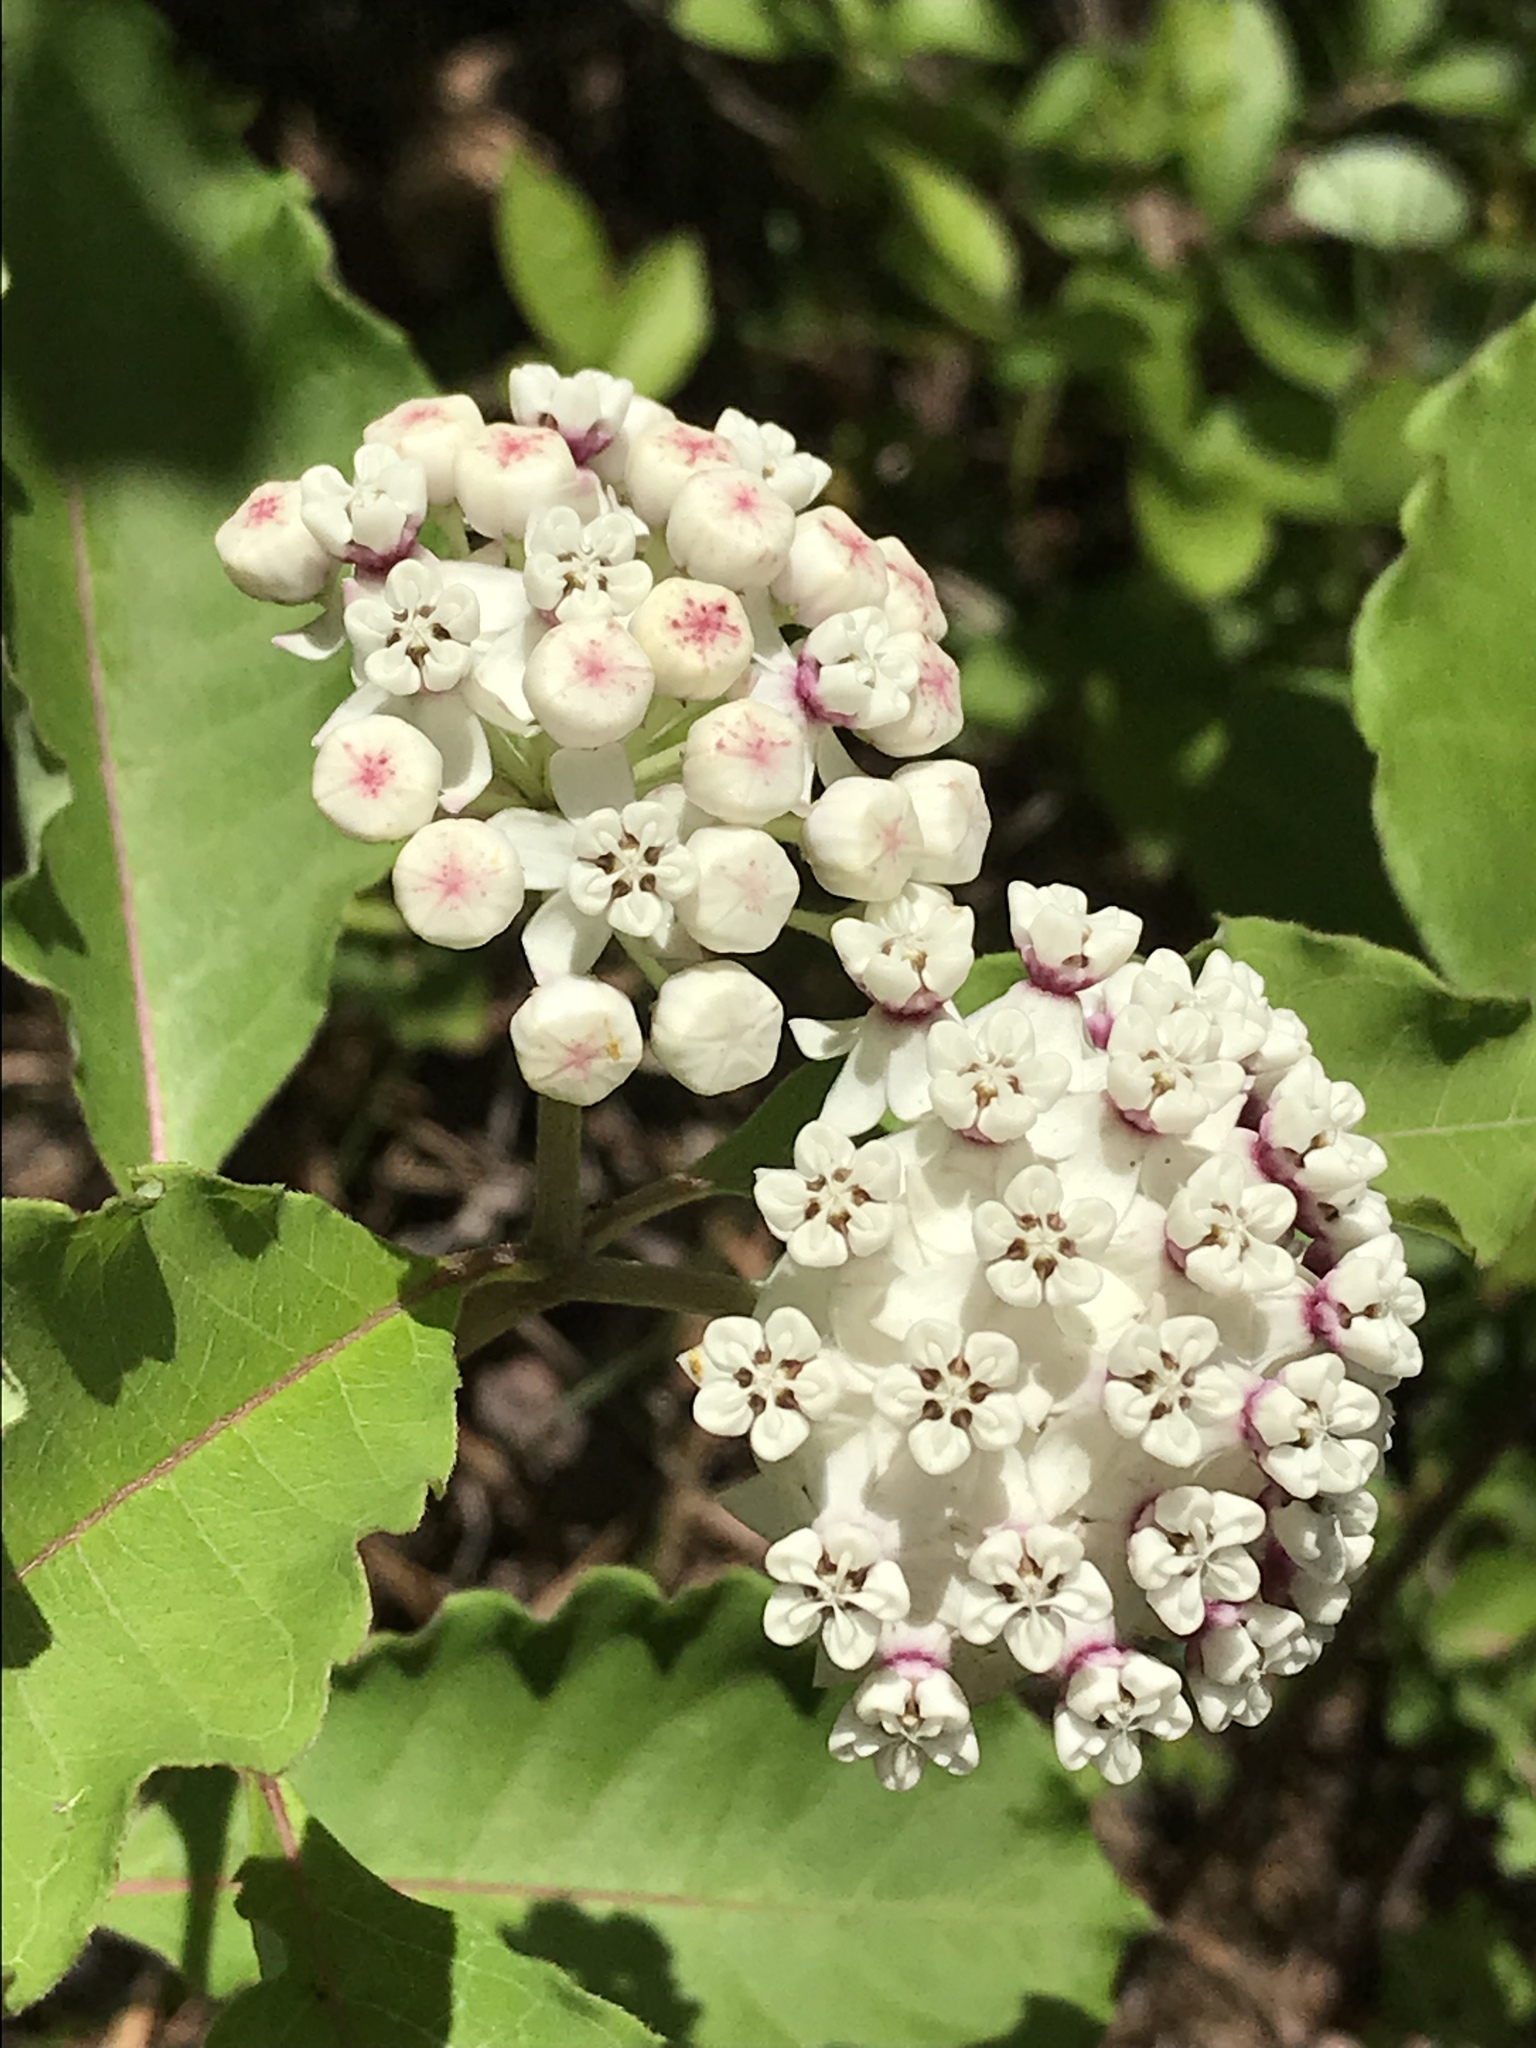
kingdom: Plantae
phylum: Tracheophyta
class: Magnoliopsida
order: Gentianales
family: Apocynaceae
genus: Asclepias
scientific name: Asclepias variegata
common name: Variegated milkweed
